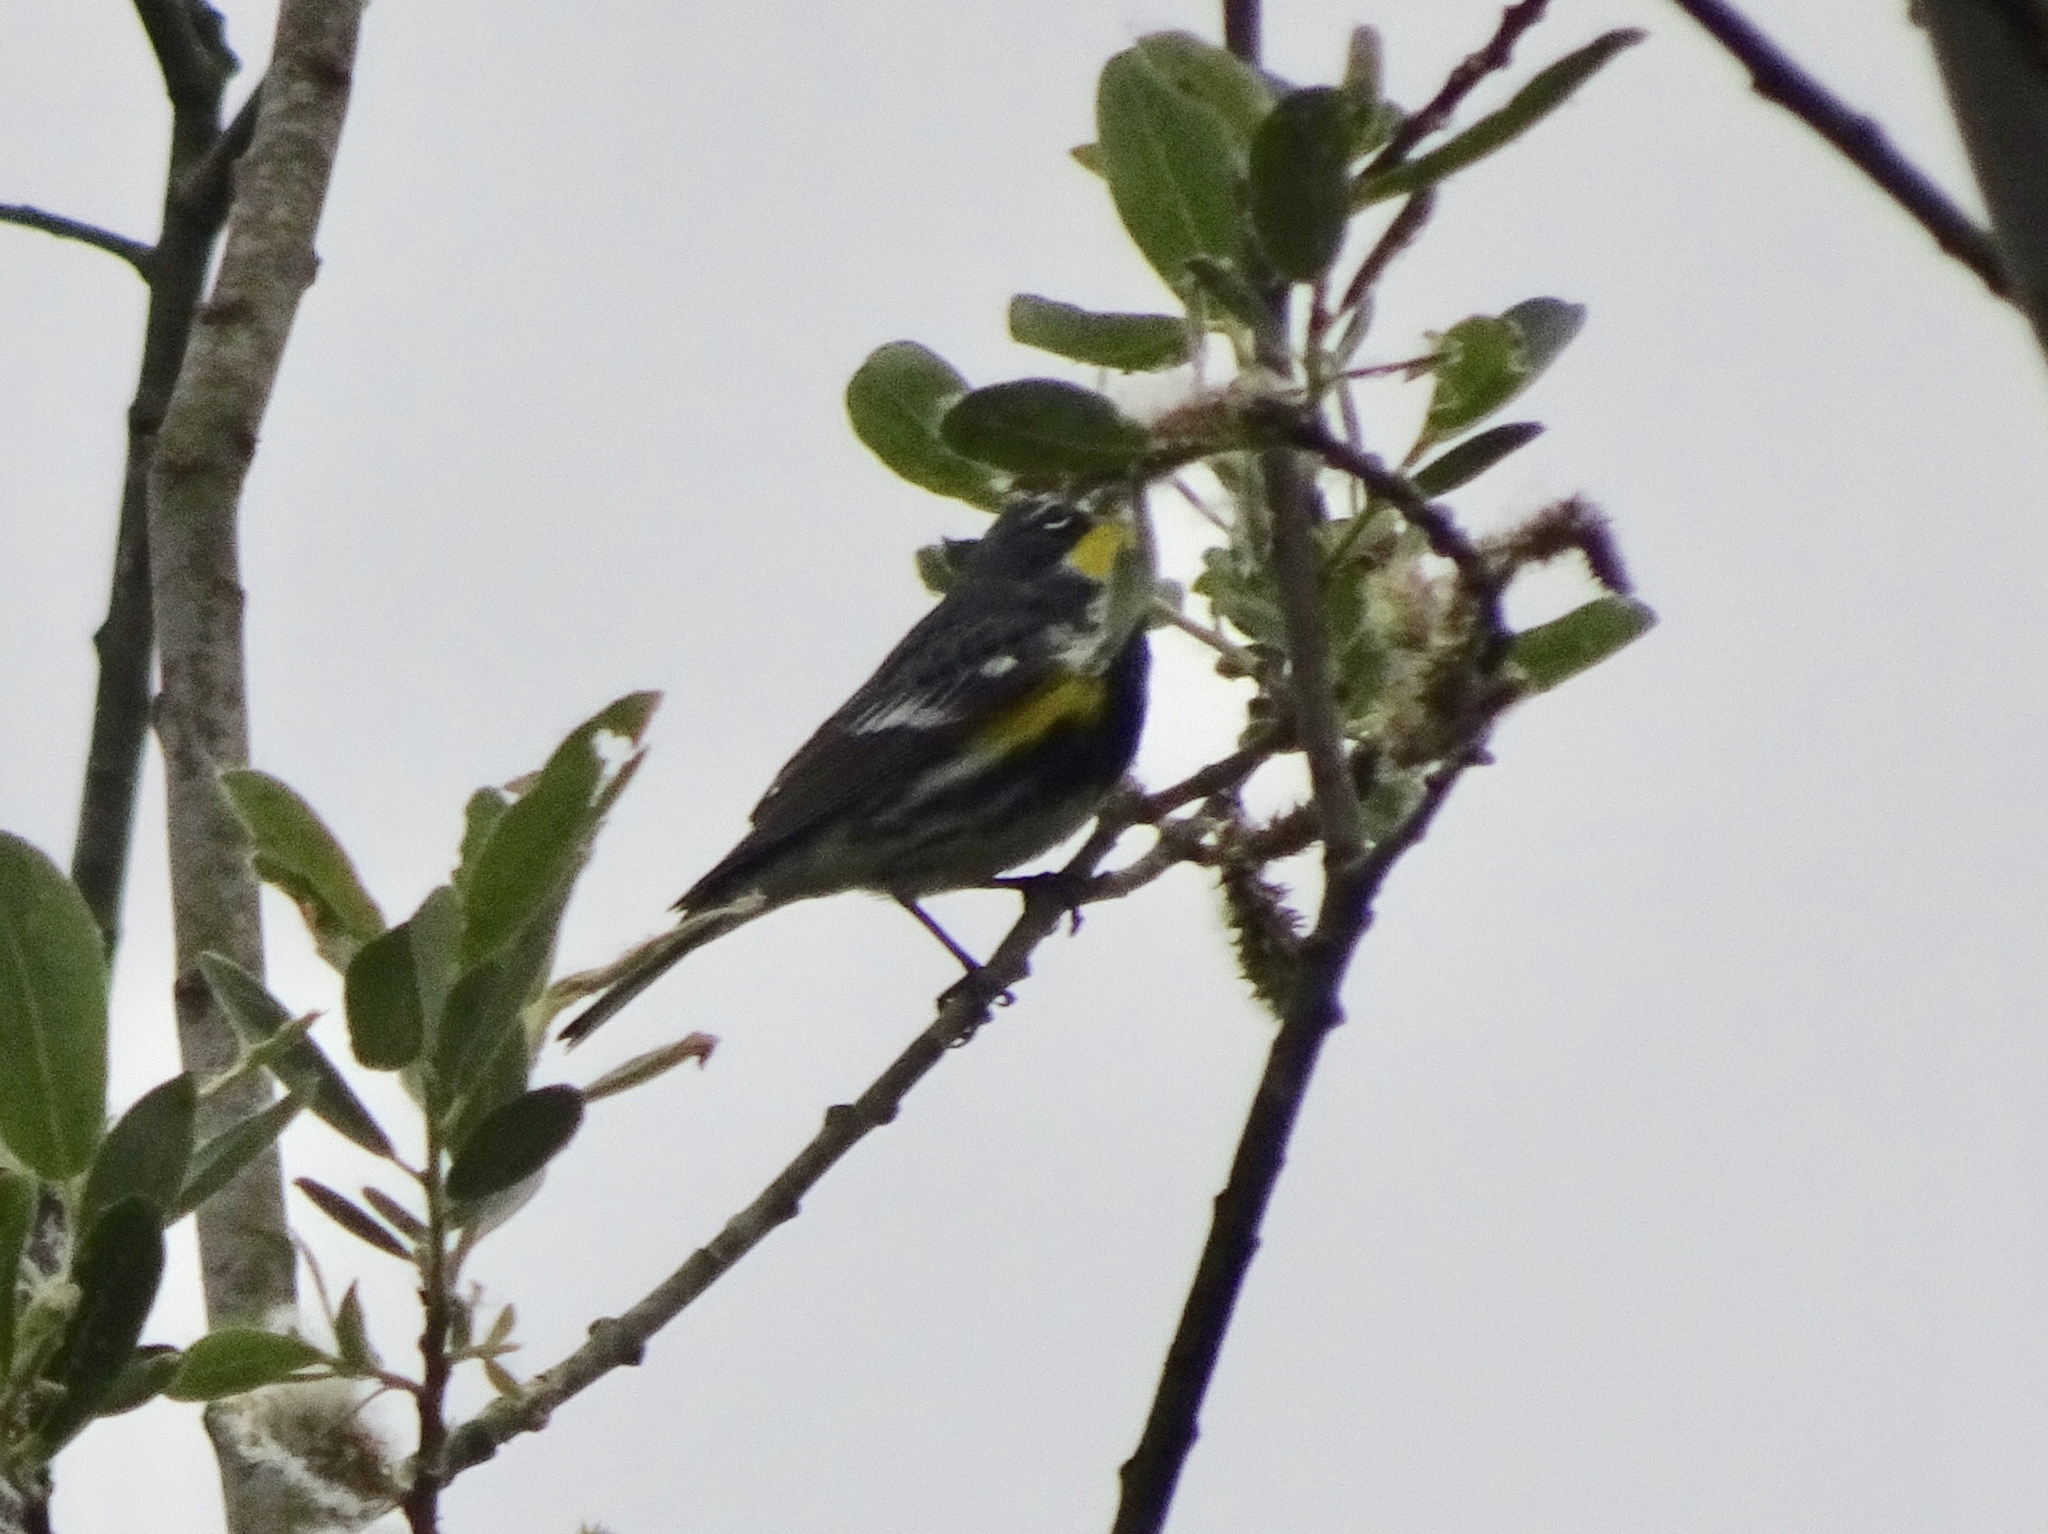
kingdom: Animalia
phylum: Chordata
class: Aves
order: Passeriformes
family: Parulidae
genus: Setophaga
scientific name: Setophaga auduboni
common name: Audubon's warbler
